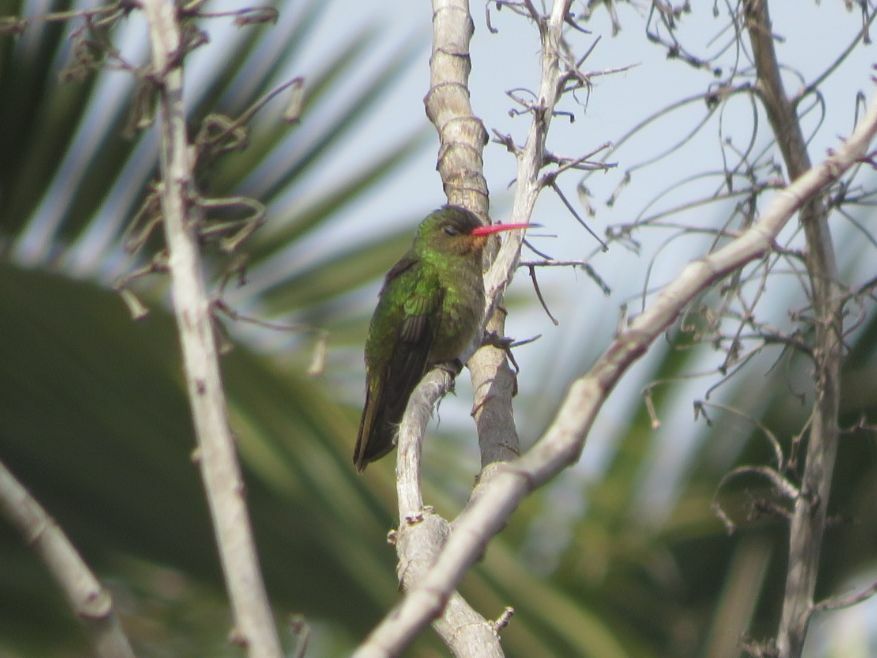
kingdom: Animalia
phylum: Chordata
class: Aves
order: Apodiformes
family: Trochilidae
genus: Hylocharis
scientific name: Hylocharis chrysura
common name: Gilded sapphire
